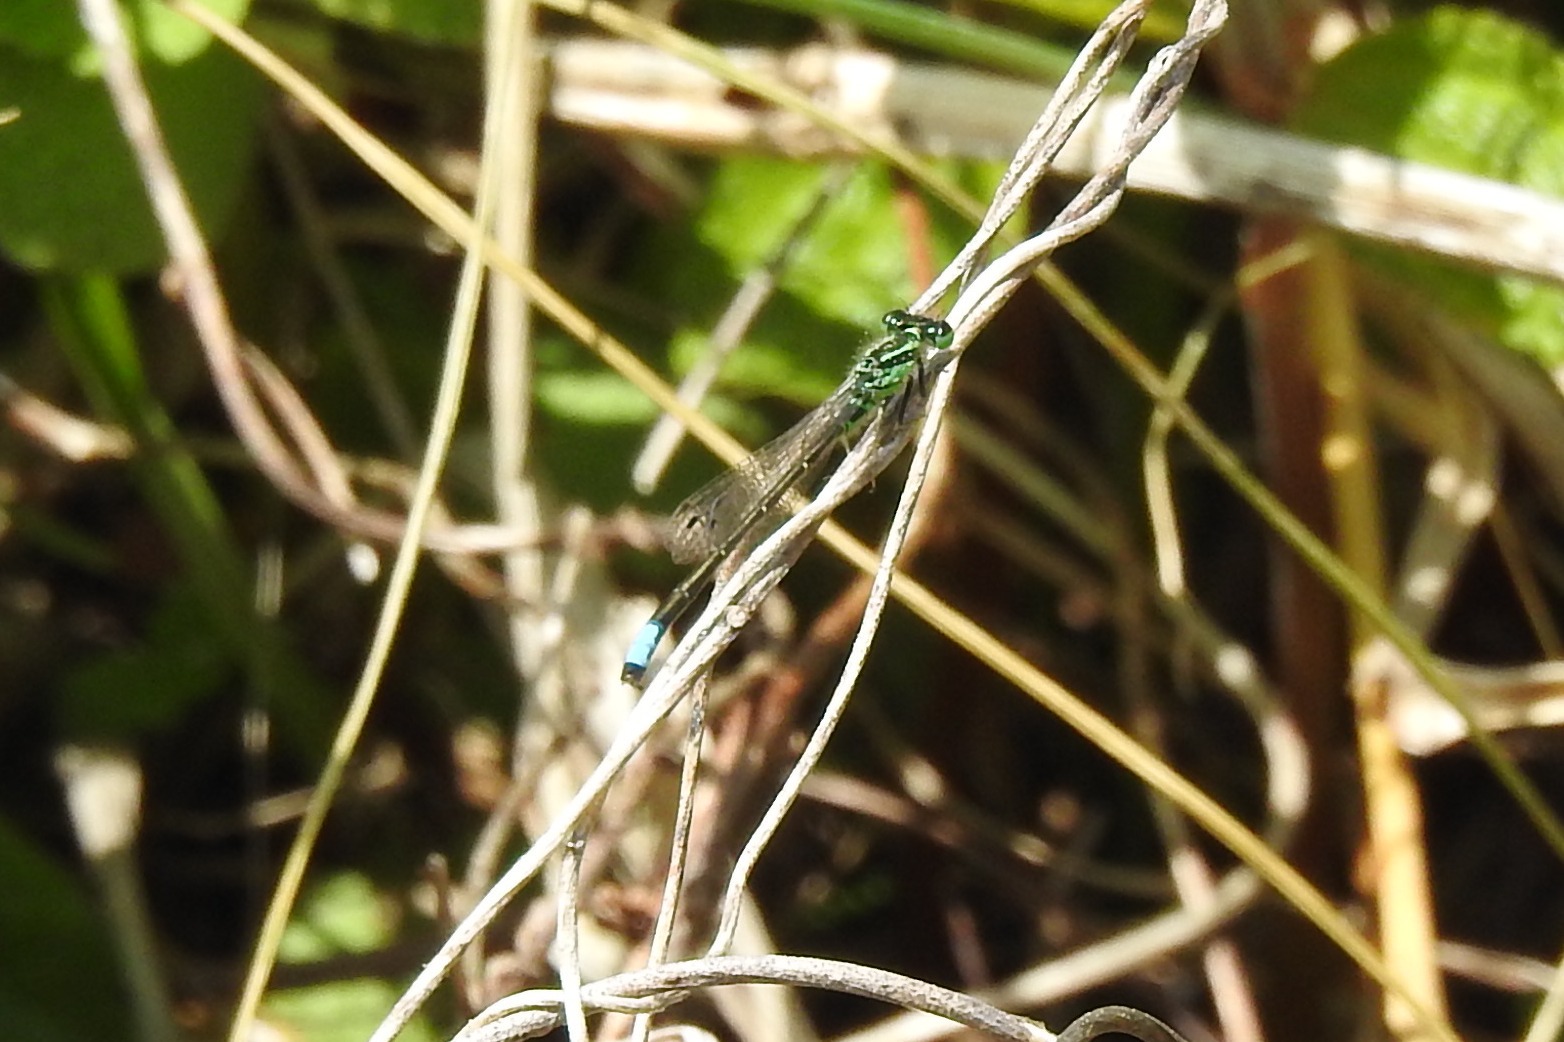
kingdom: Animalia
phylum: Arthropoda
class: Insecta
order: Odonata
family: Coenagrionidae
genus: Ischnura
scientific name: Ischnura verticalis
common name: Eastern forktail
